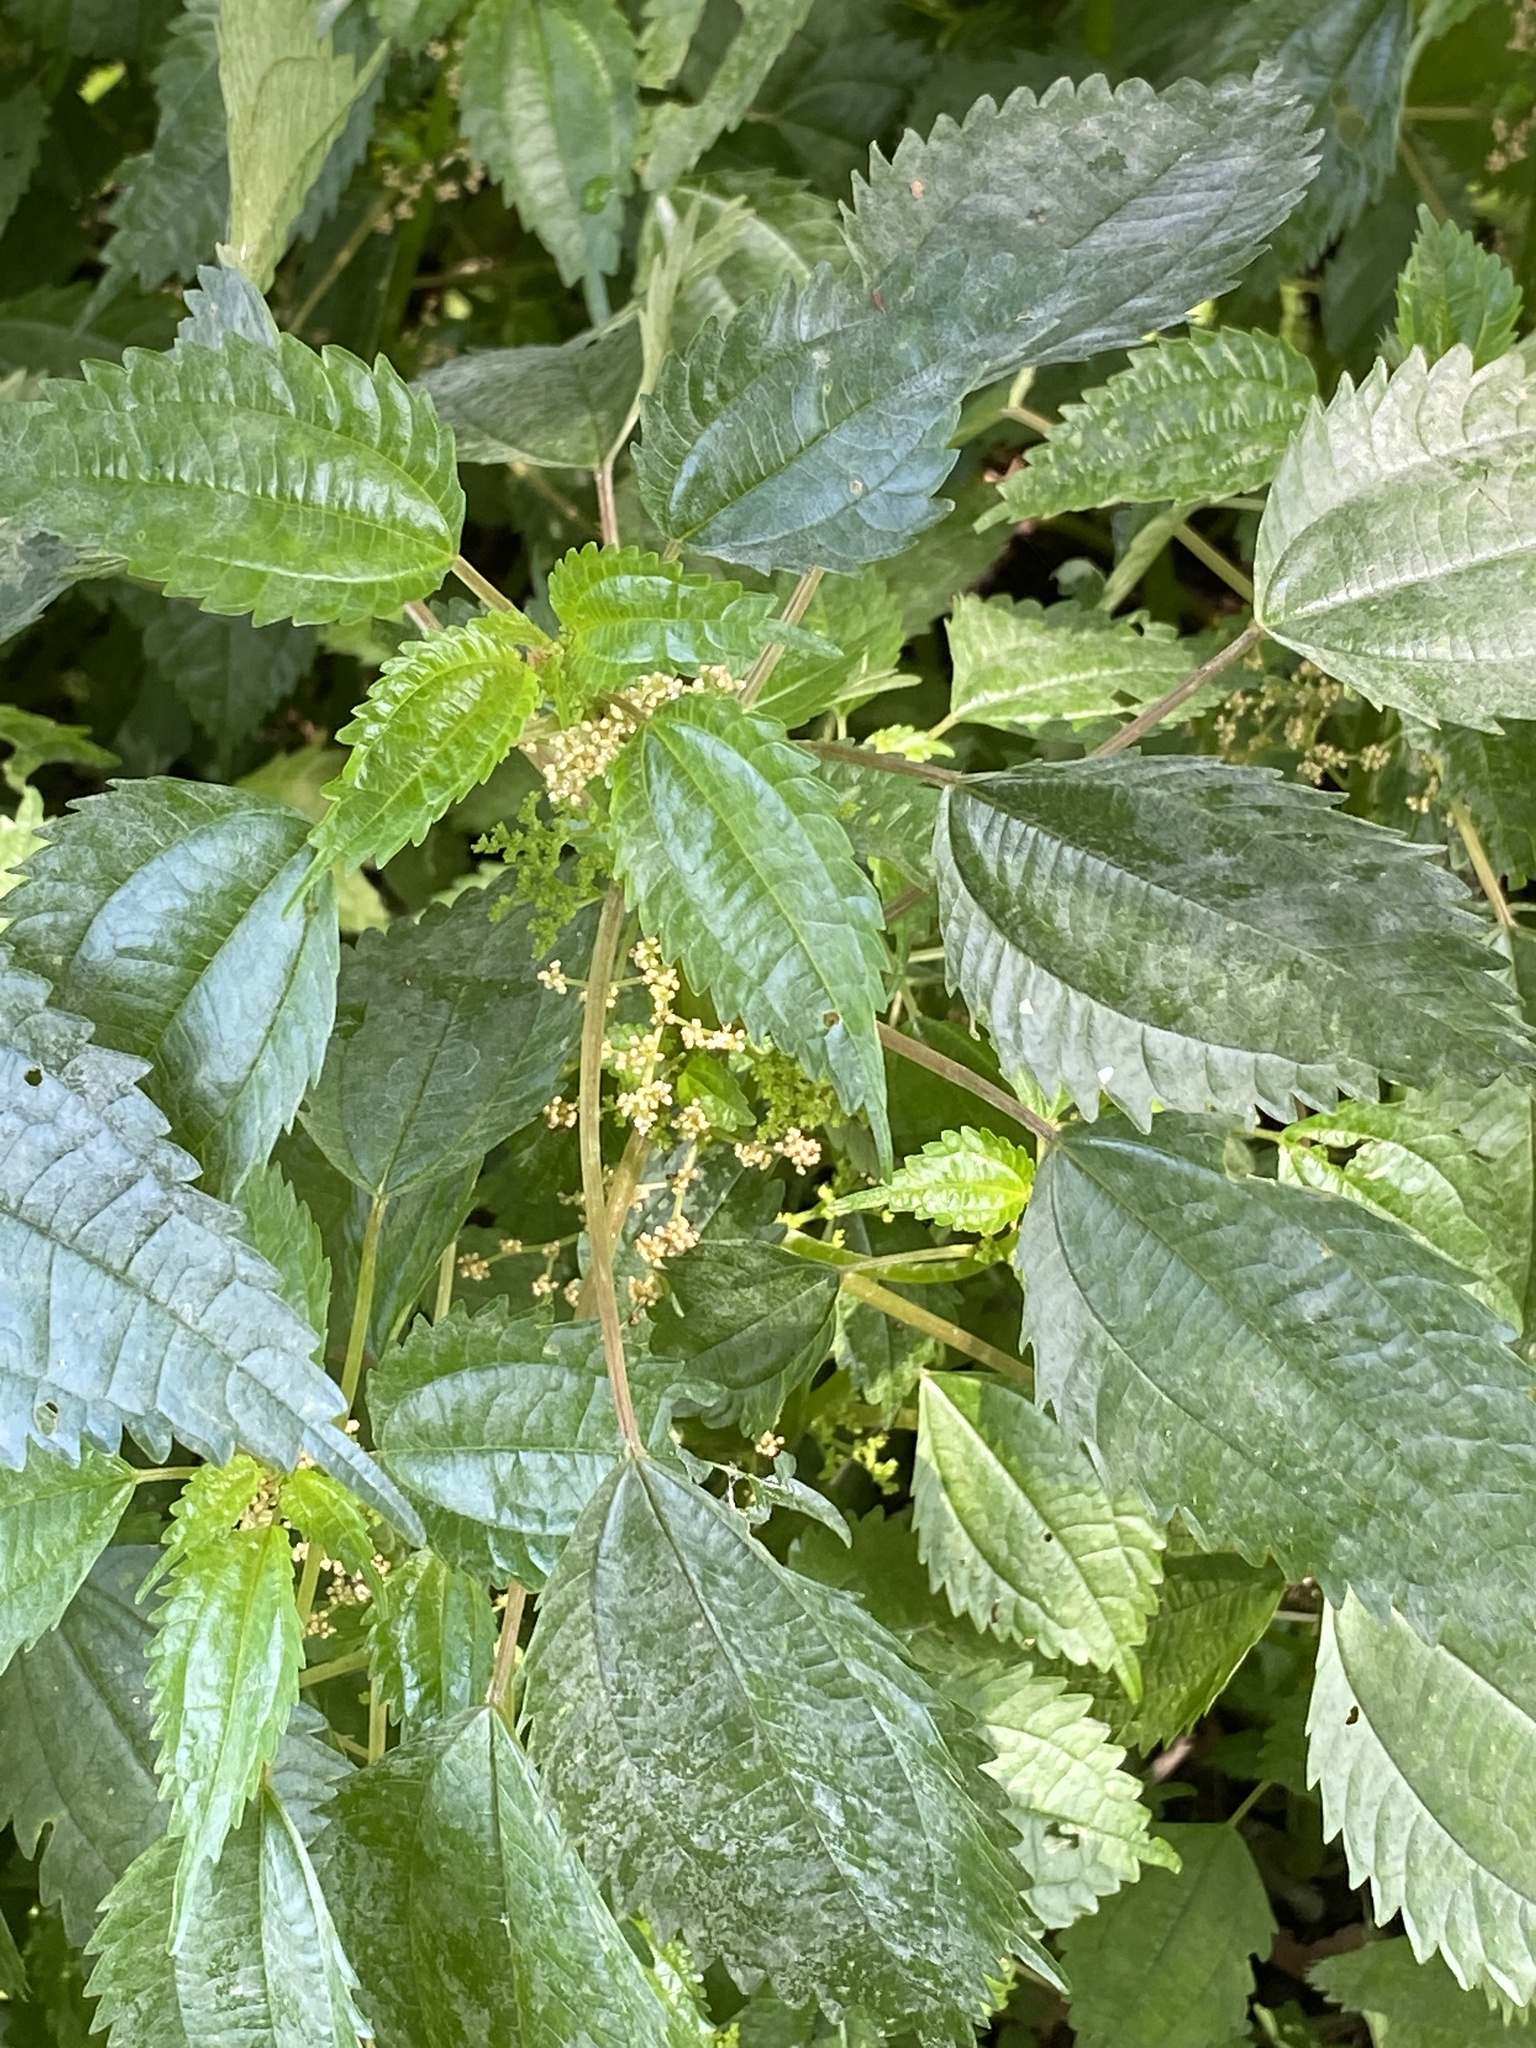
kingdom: Plantae
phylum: Tracheophyta
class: Magnoliopsida
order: Rosales
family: Urticaceae
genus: Pilea
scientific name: Pilea pumila
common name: Clearweed
